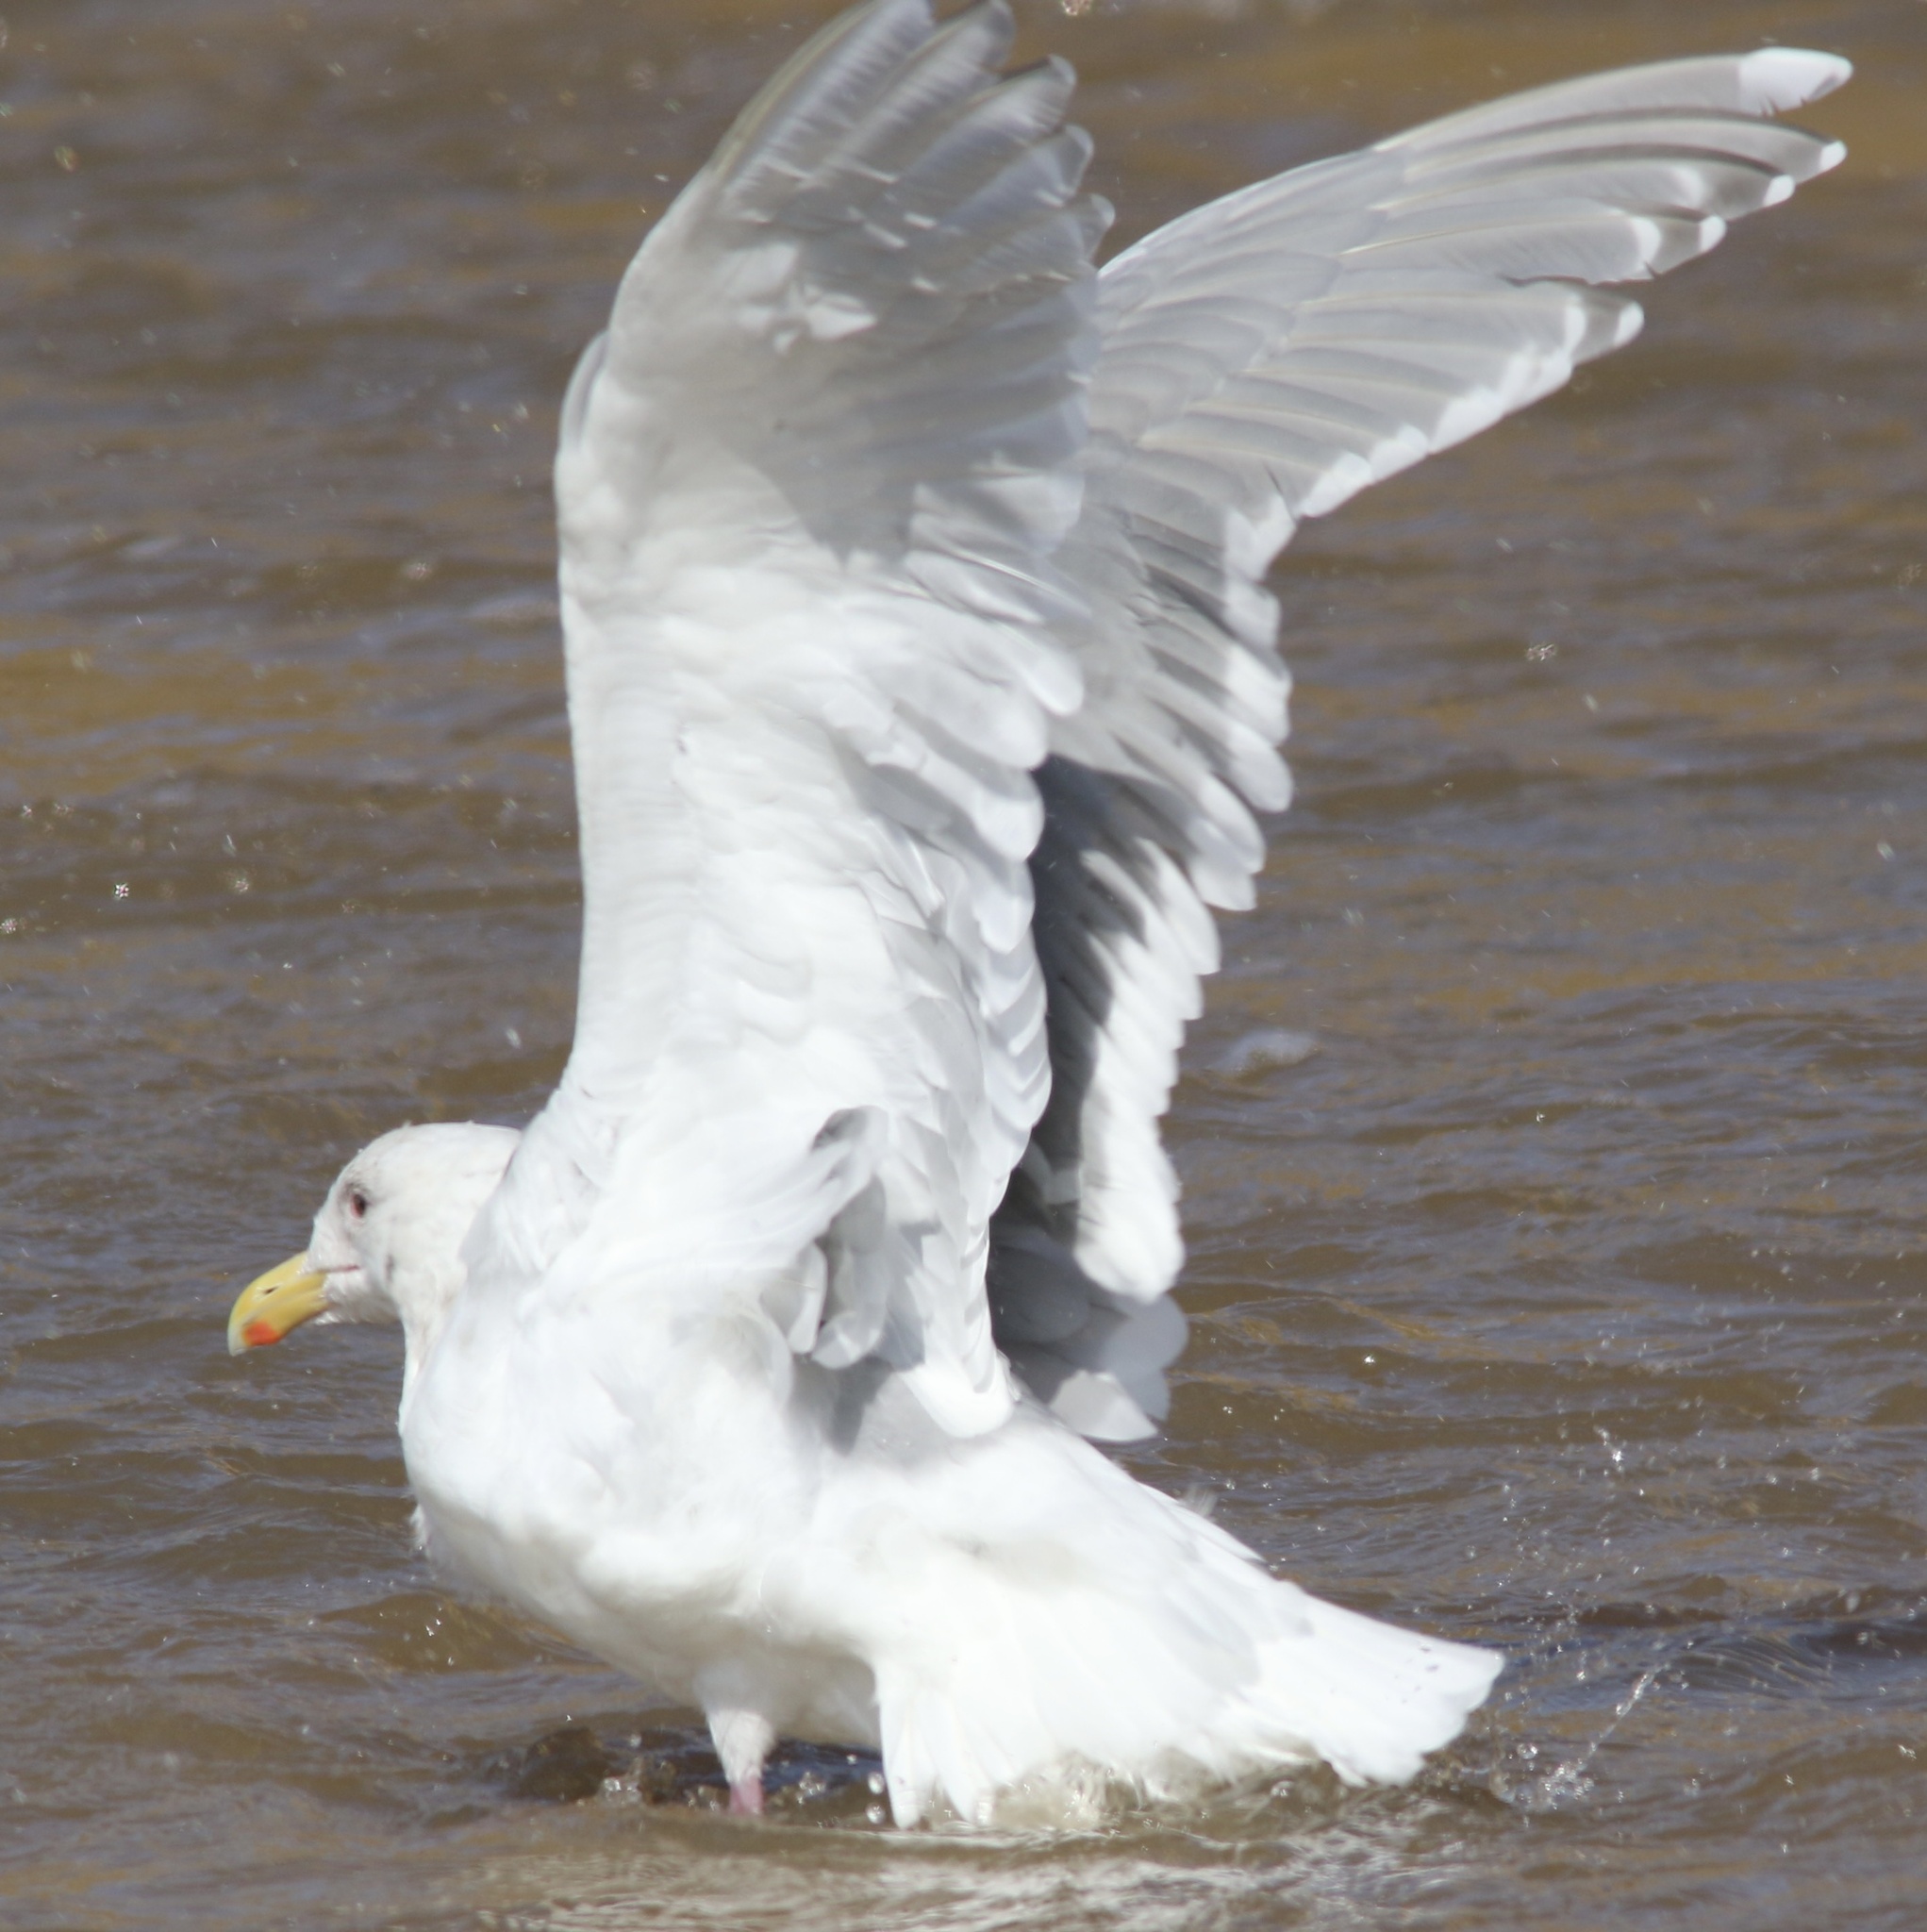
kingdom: Animalia
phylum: Chordata
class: Aves
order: Charadriiformes
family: Laridae
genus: Larus
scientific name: Larus glaucescens
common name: Glaucous-winged gull
